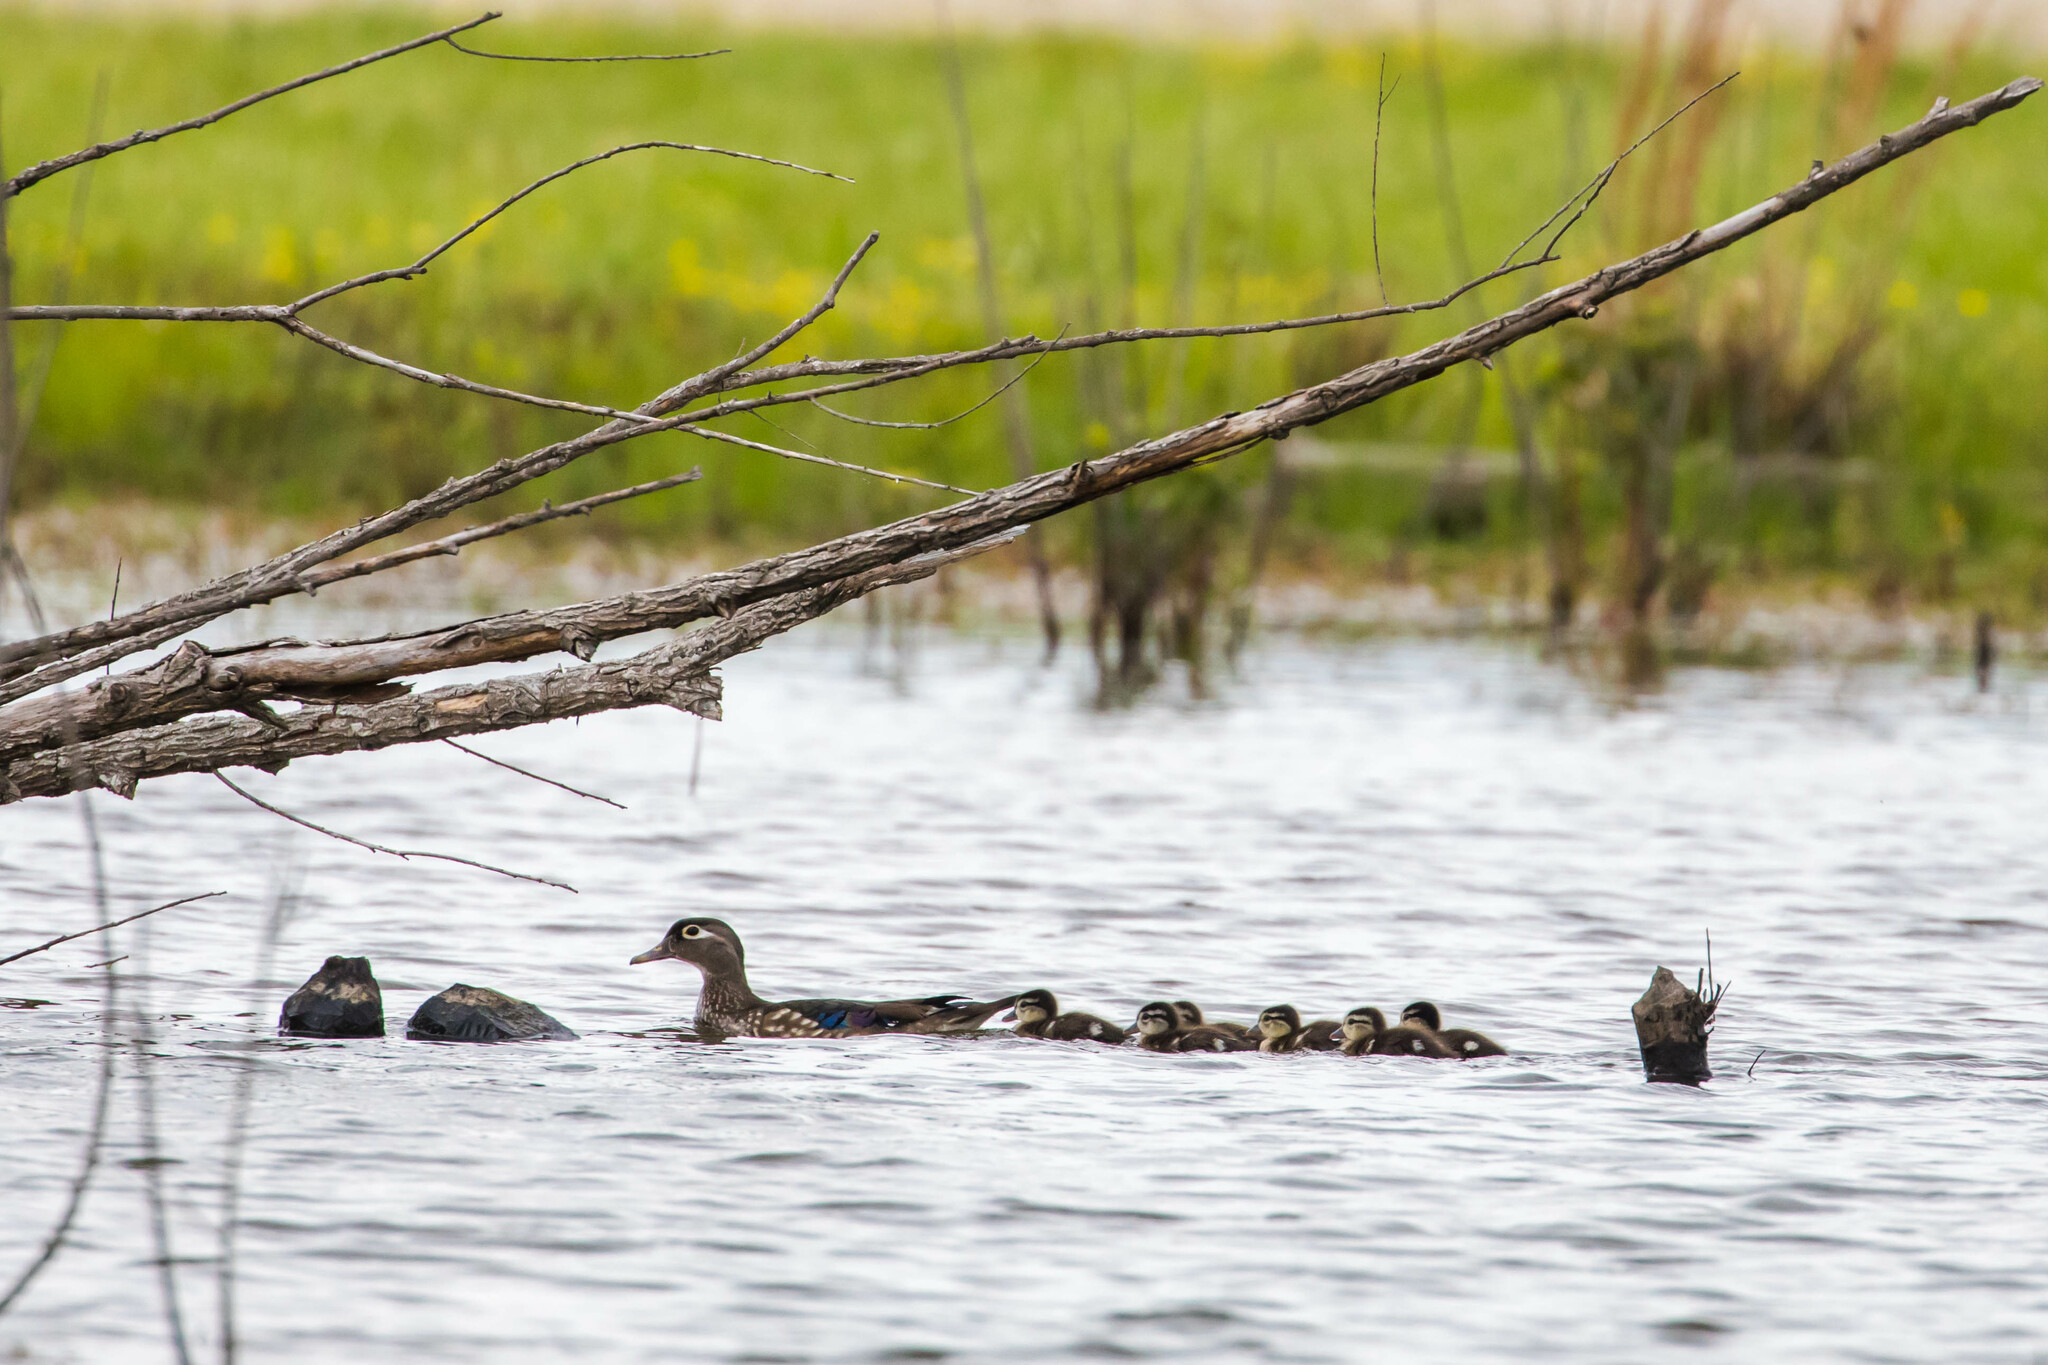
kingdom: Animalia
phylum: Chordata
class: Aves
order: Anseriformes
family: Anatidae
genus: Aix
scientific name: Aix sponsa
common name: Wood duck
